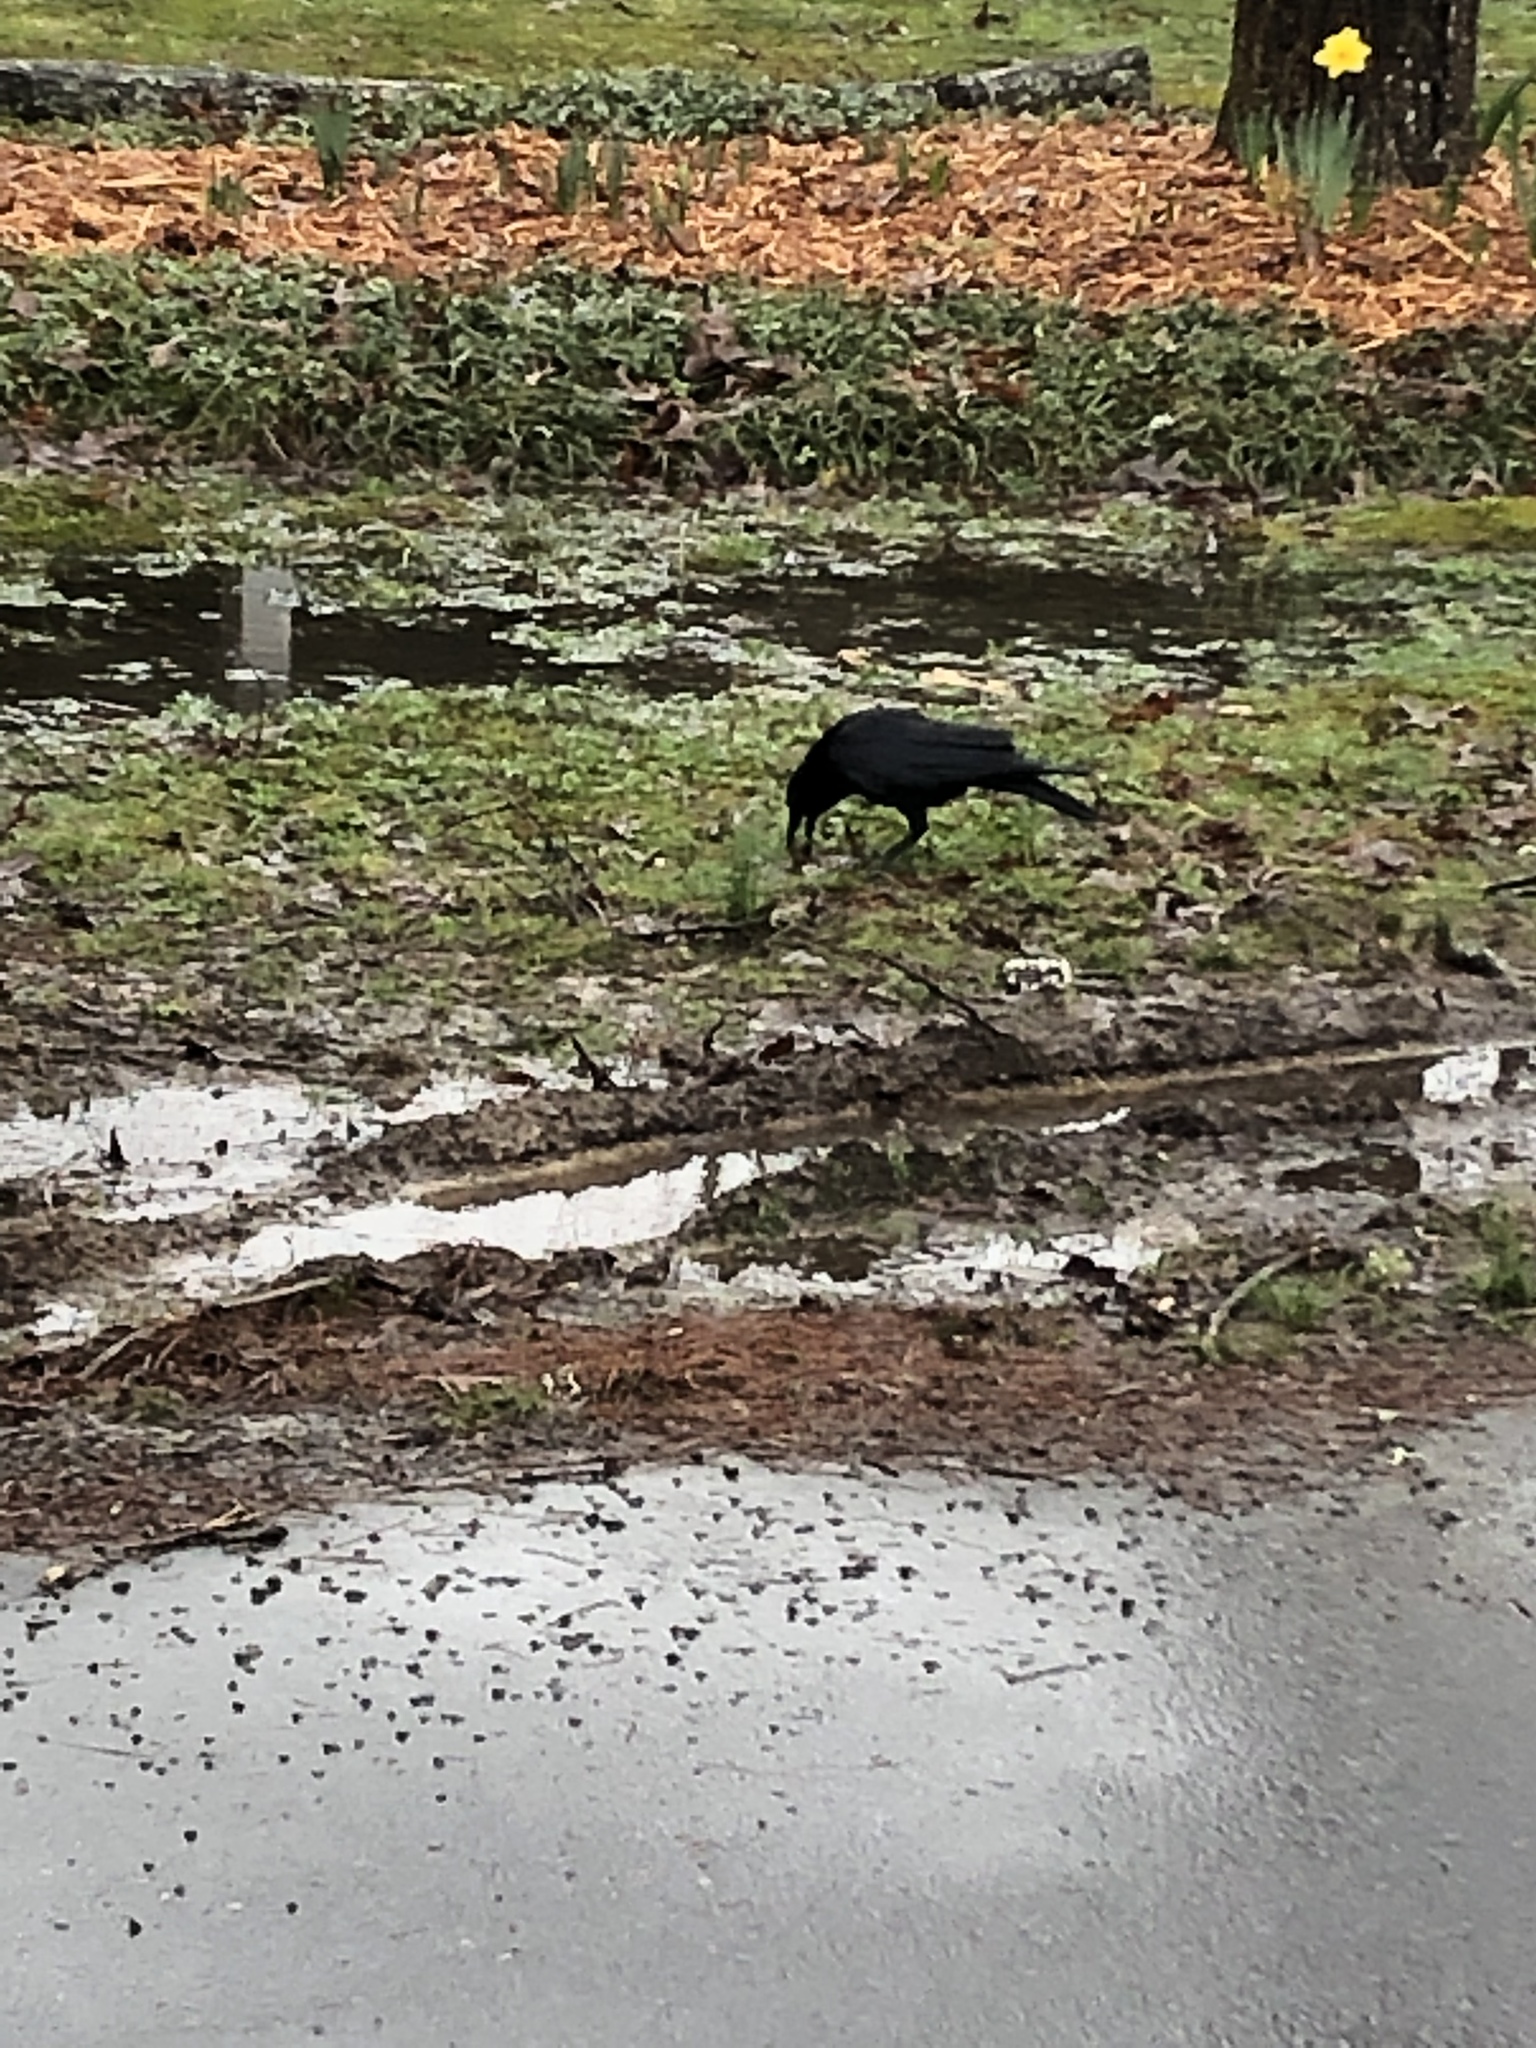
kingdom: Animalia
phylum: Chordata
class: Aves
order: Passeriformes
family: Corvidae
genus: Corvus
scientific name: Corvus
